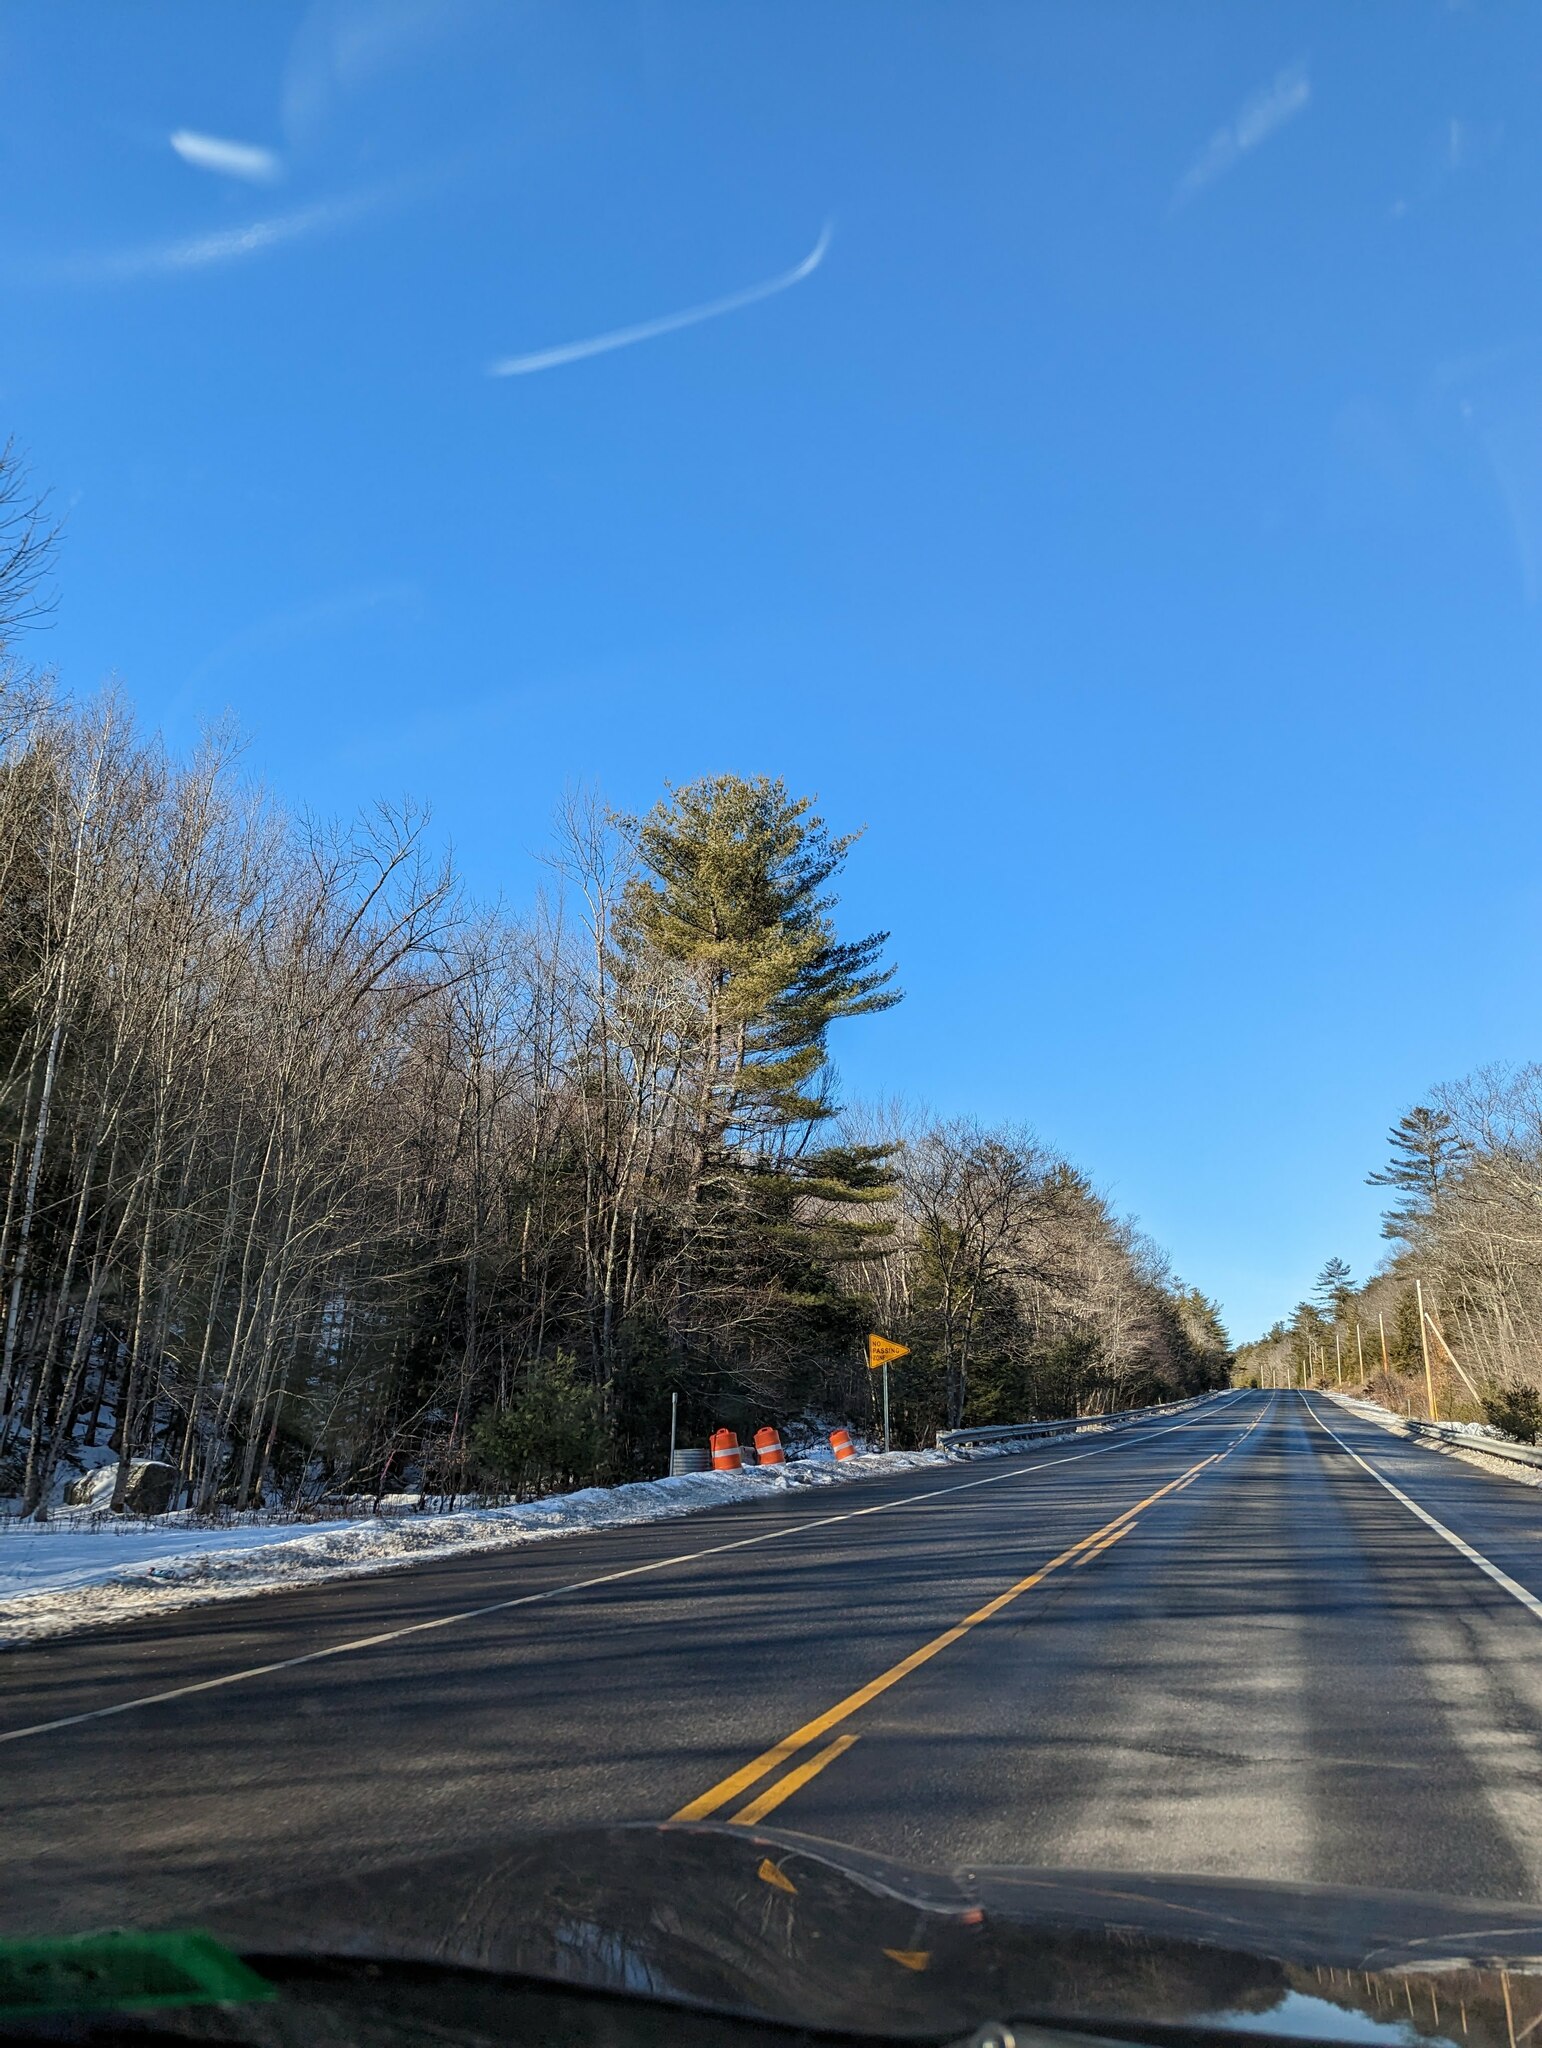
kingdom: Plantae
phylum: Tracheophyta
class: Pinopsida
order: Pinales
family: Pinaceae
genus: Pinus
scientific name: Pinus strobus
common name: Weymouth pine
